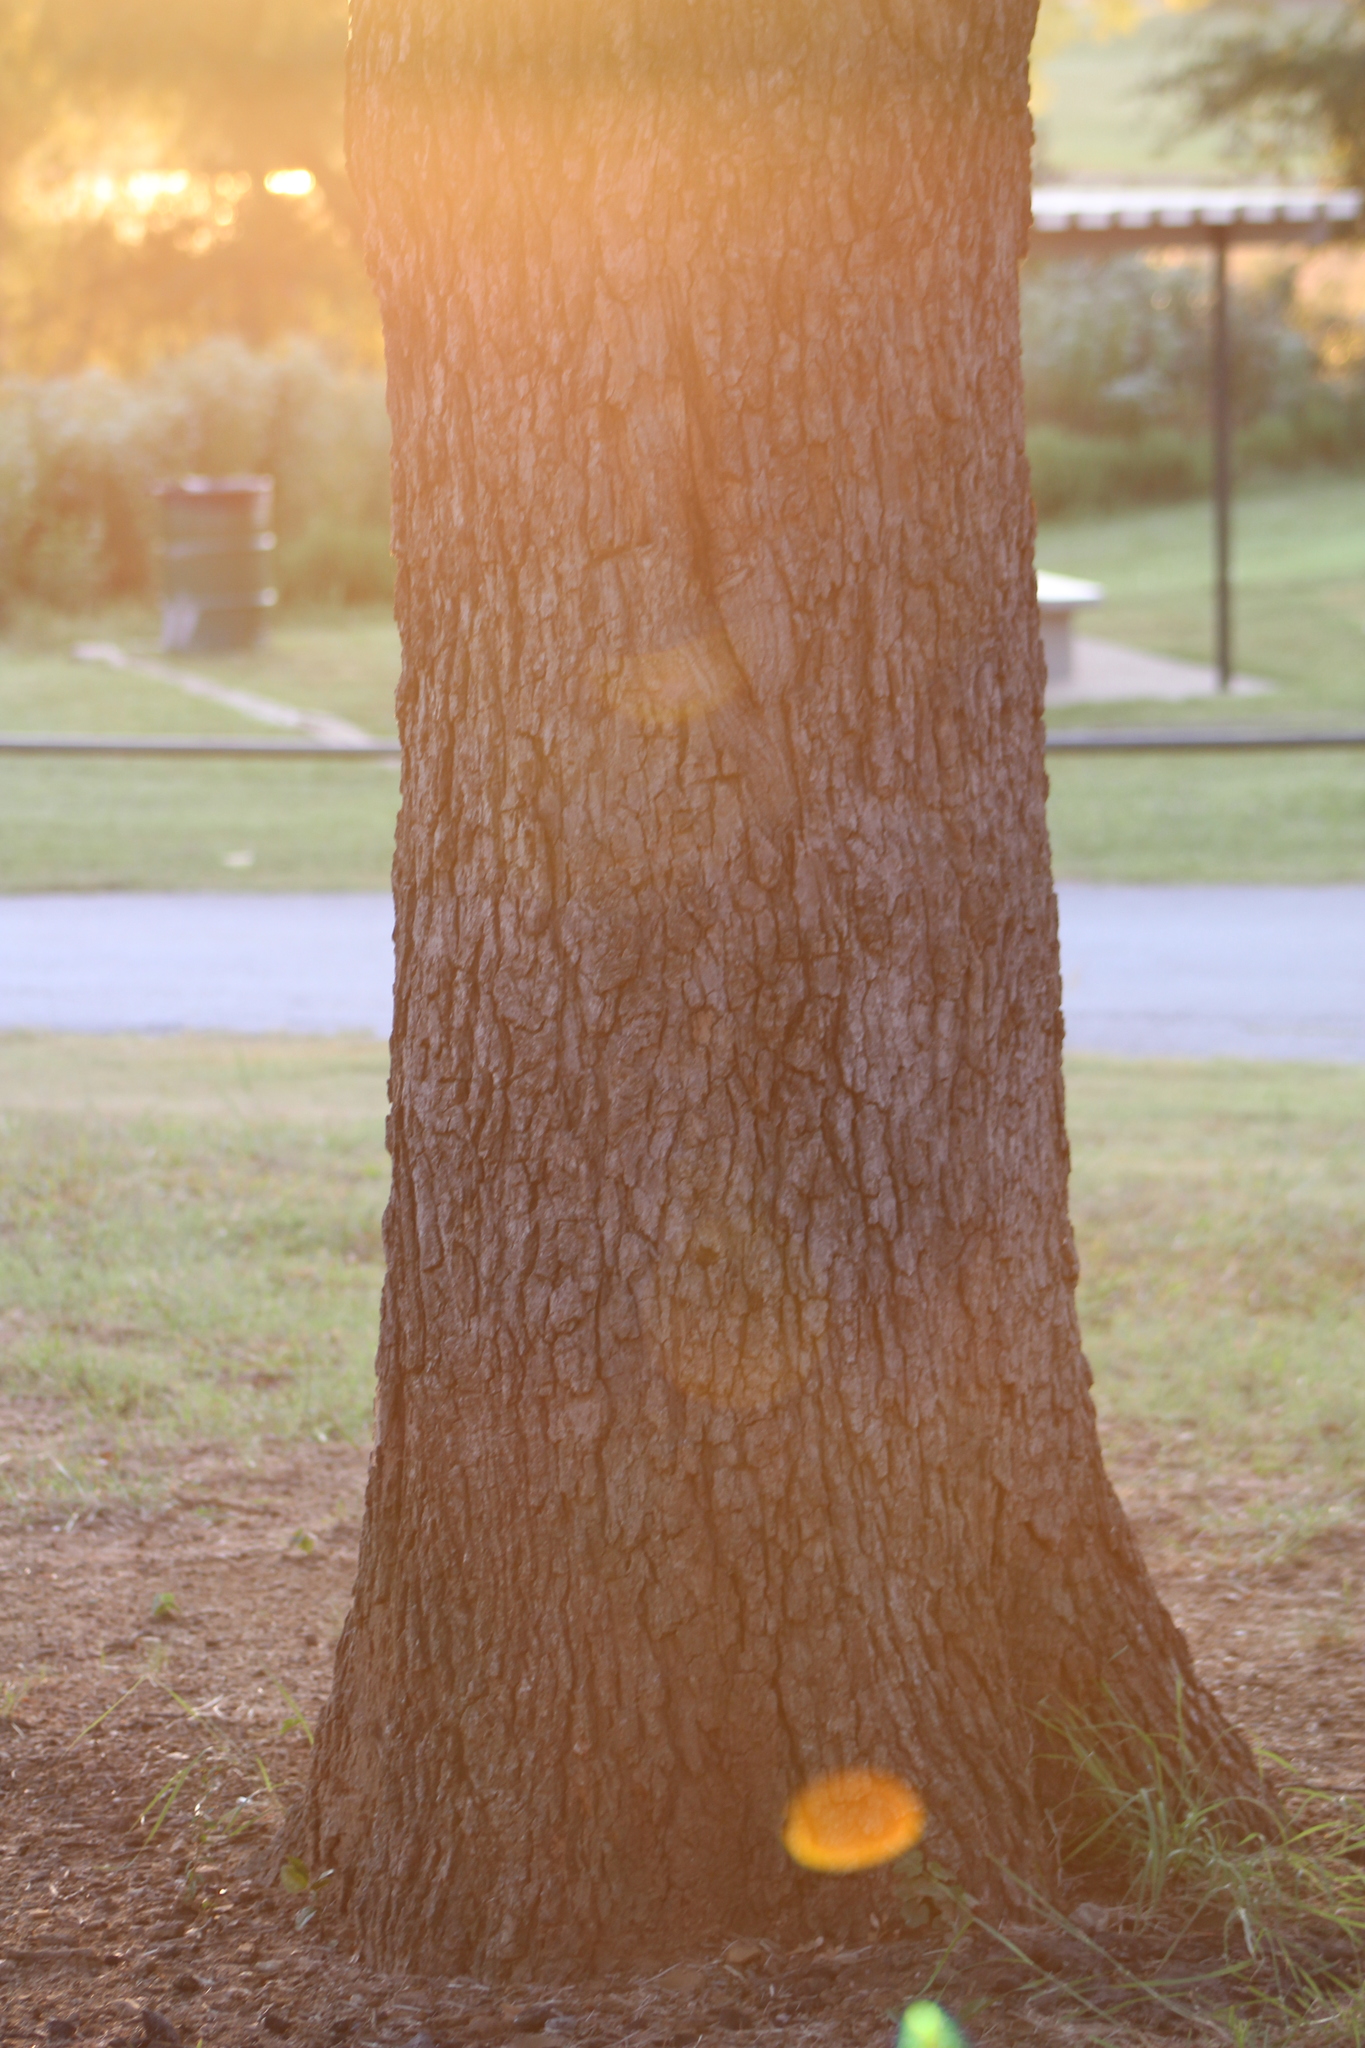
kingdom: Plantae
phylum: Tracheophyta
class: Magnoliopsida
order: Fagales
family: Fagaceae
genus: Quercus
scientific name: Quercus stellata
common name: Post oak
